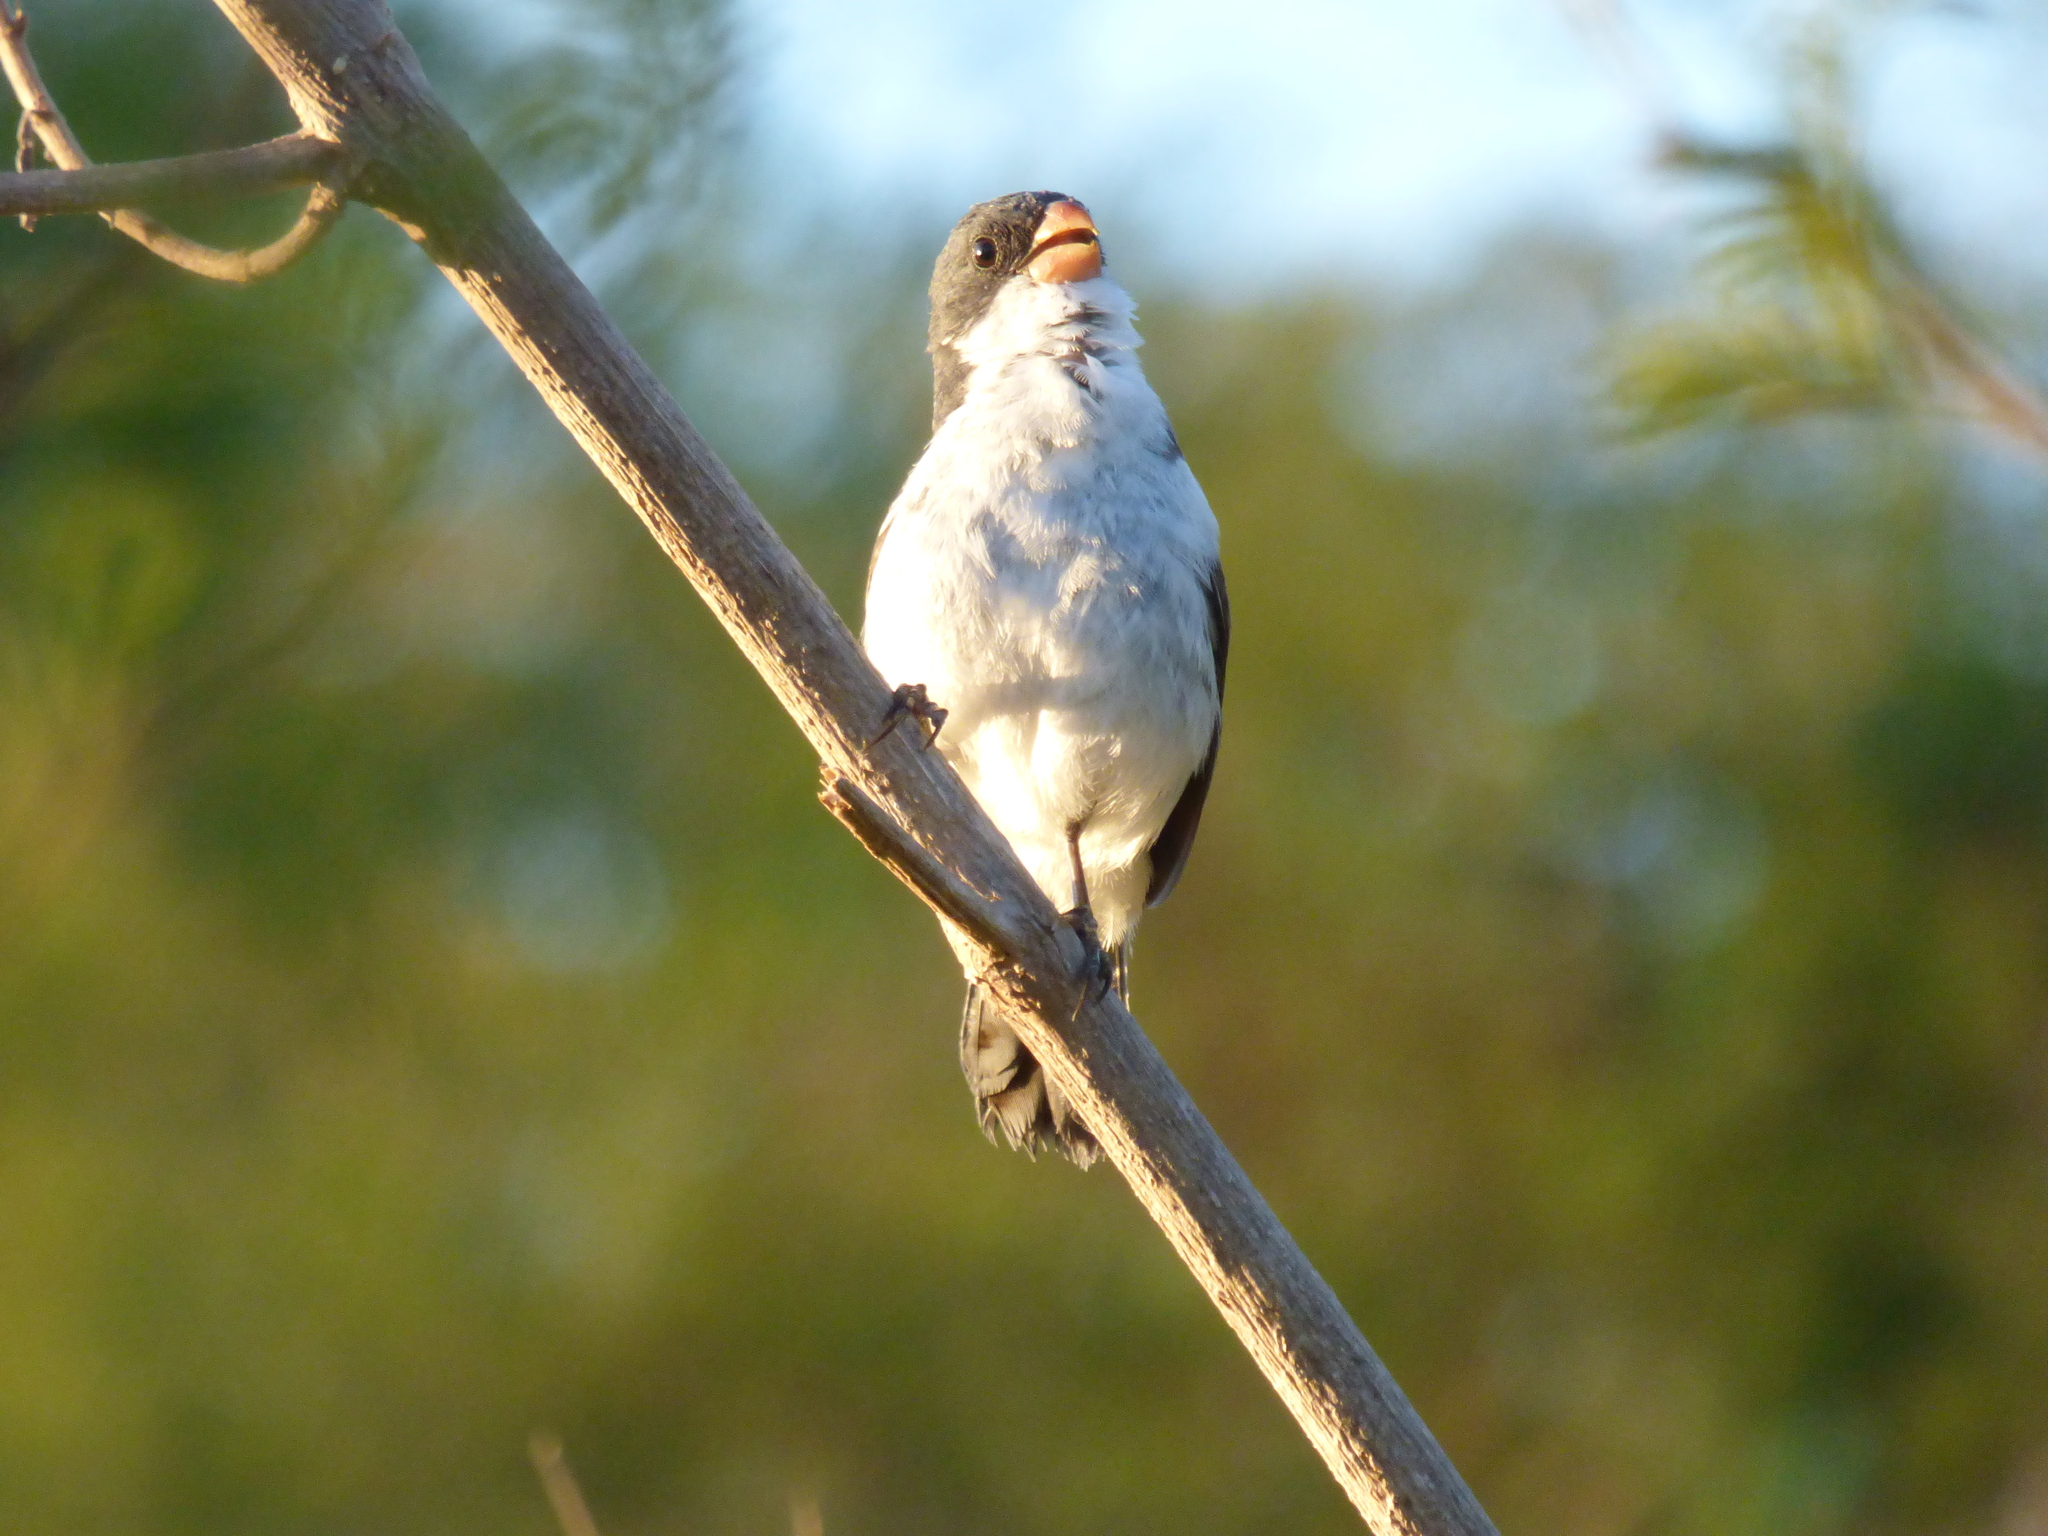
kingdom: Animalia
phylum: Chordata
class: Aves
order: Passeriformes
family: Thraupidae
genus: Sporophila
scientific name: Sporophila leucoptera
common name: White-bellied seedeater
